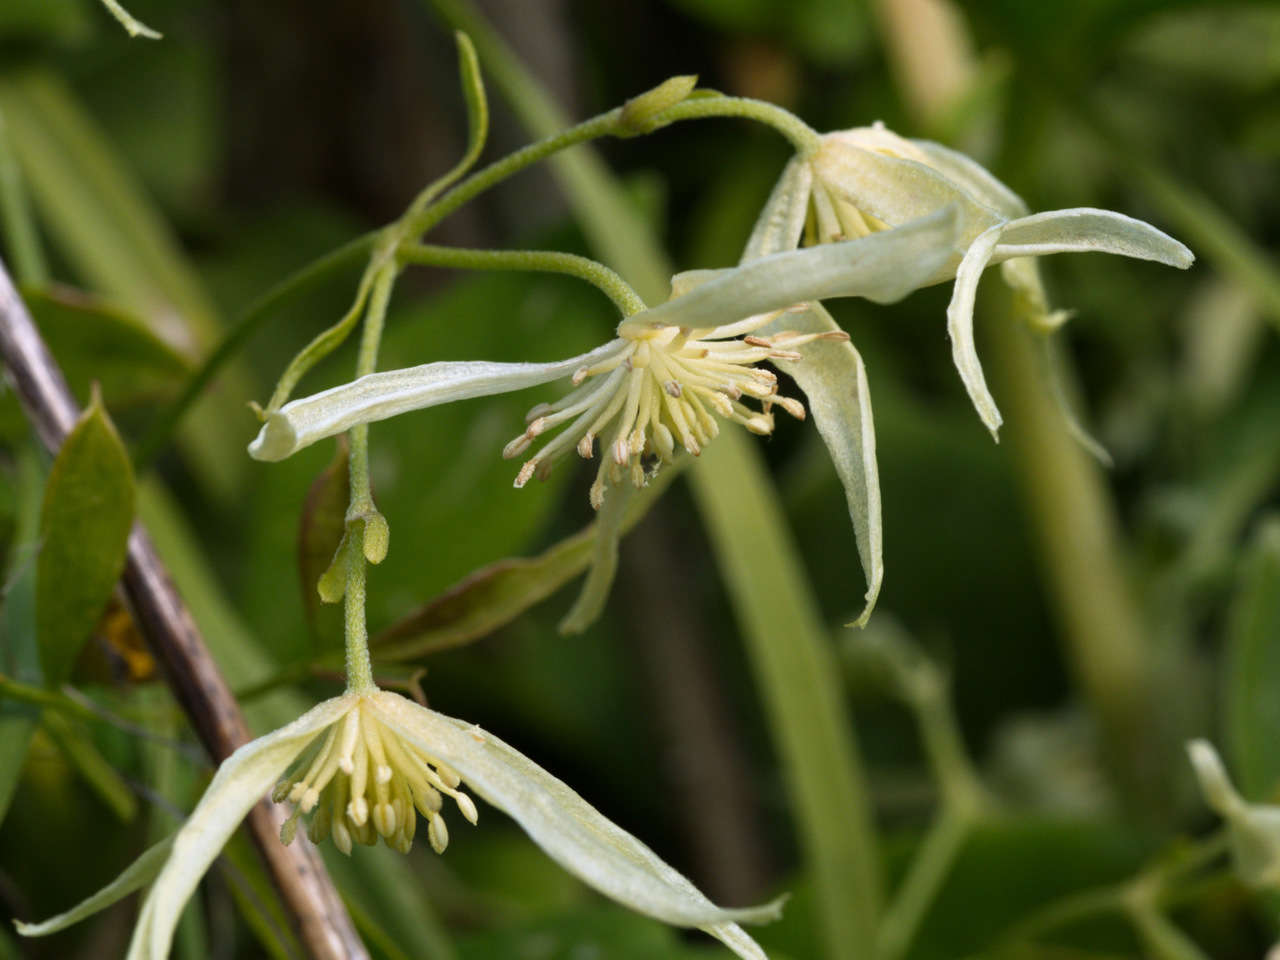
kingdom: Plantae
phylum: Tracheophyta
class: Magnoliopsida
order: Ranunculales
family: Ranunculaceae
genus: Clematis
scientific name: Clematis microphylla
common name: Headachevine
